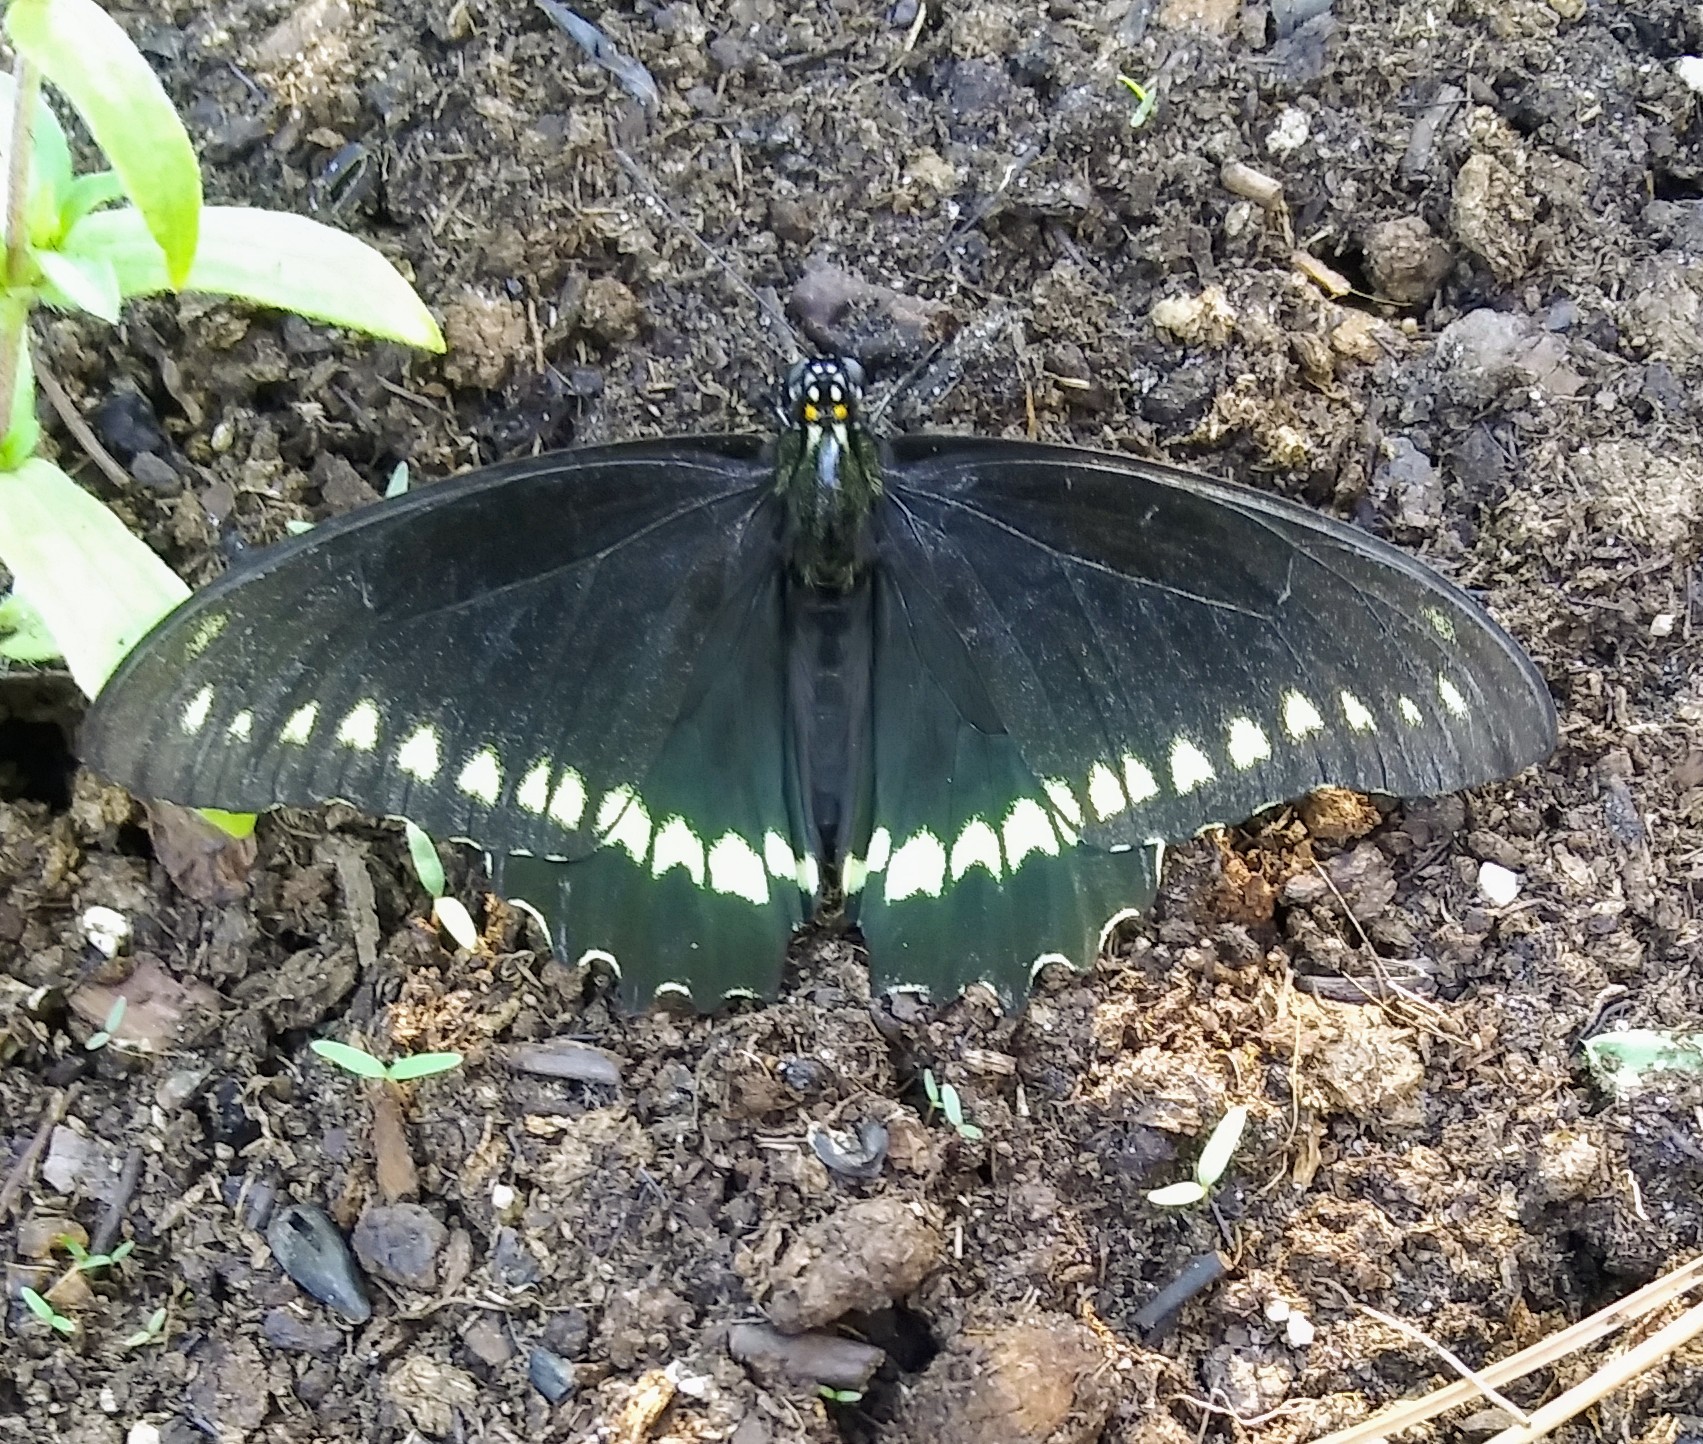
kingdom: Animalia
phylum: Arthropoda
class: Insecta
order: Lepidoptera
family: Papilionidae
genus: Battus
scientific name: Battus polydamas
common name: Polydamas swallowtail
